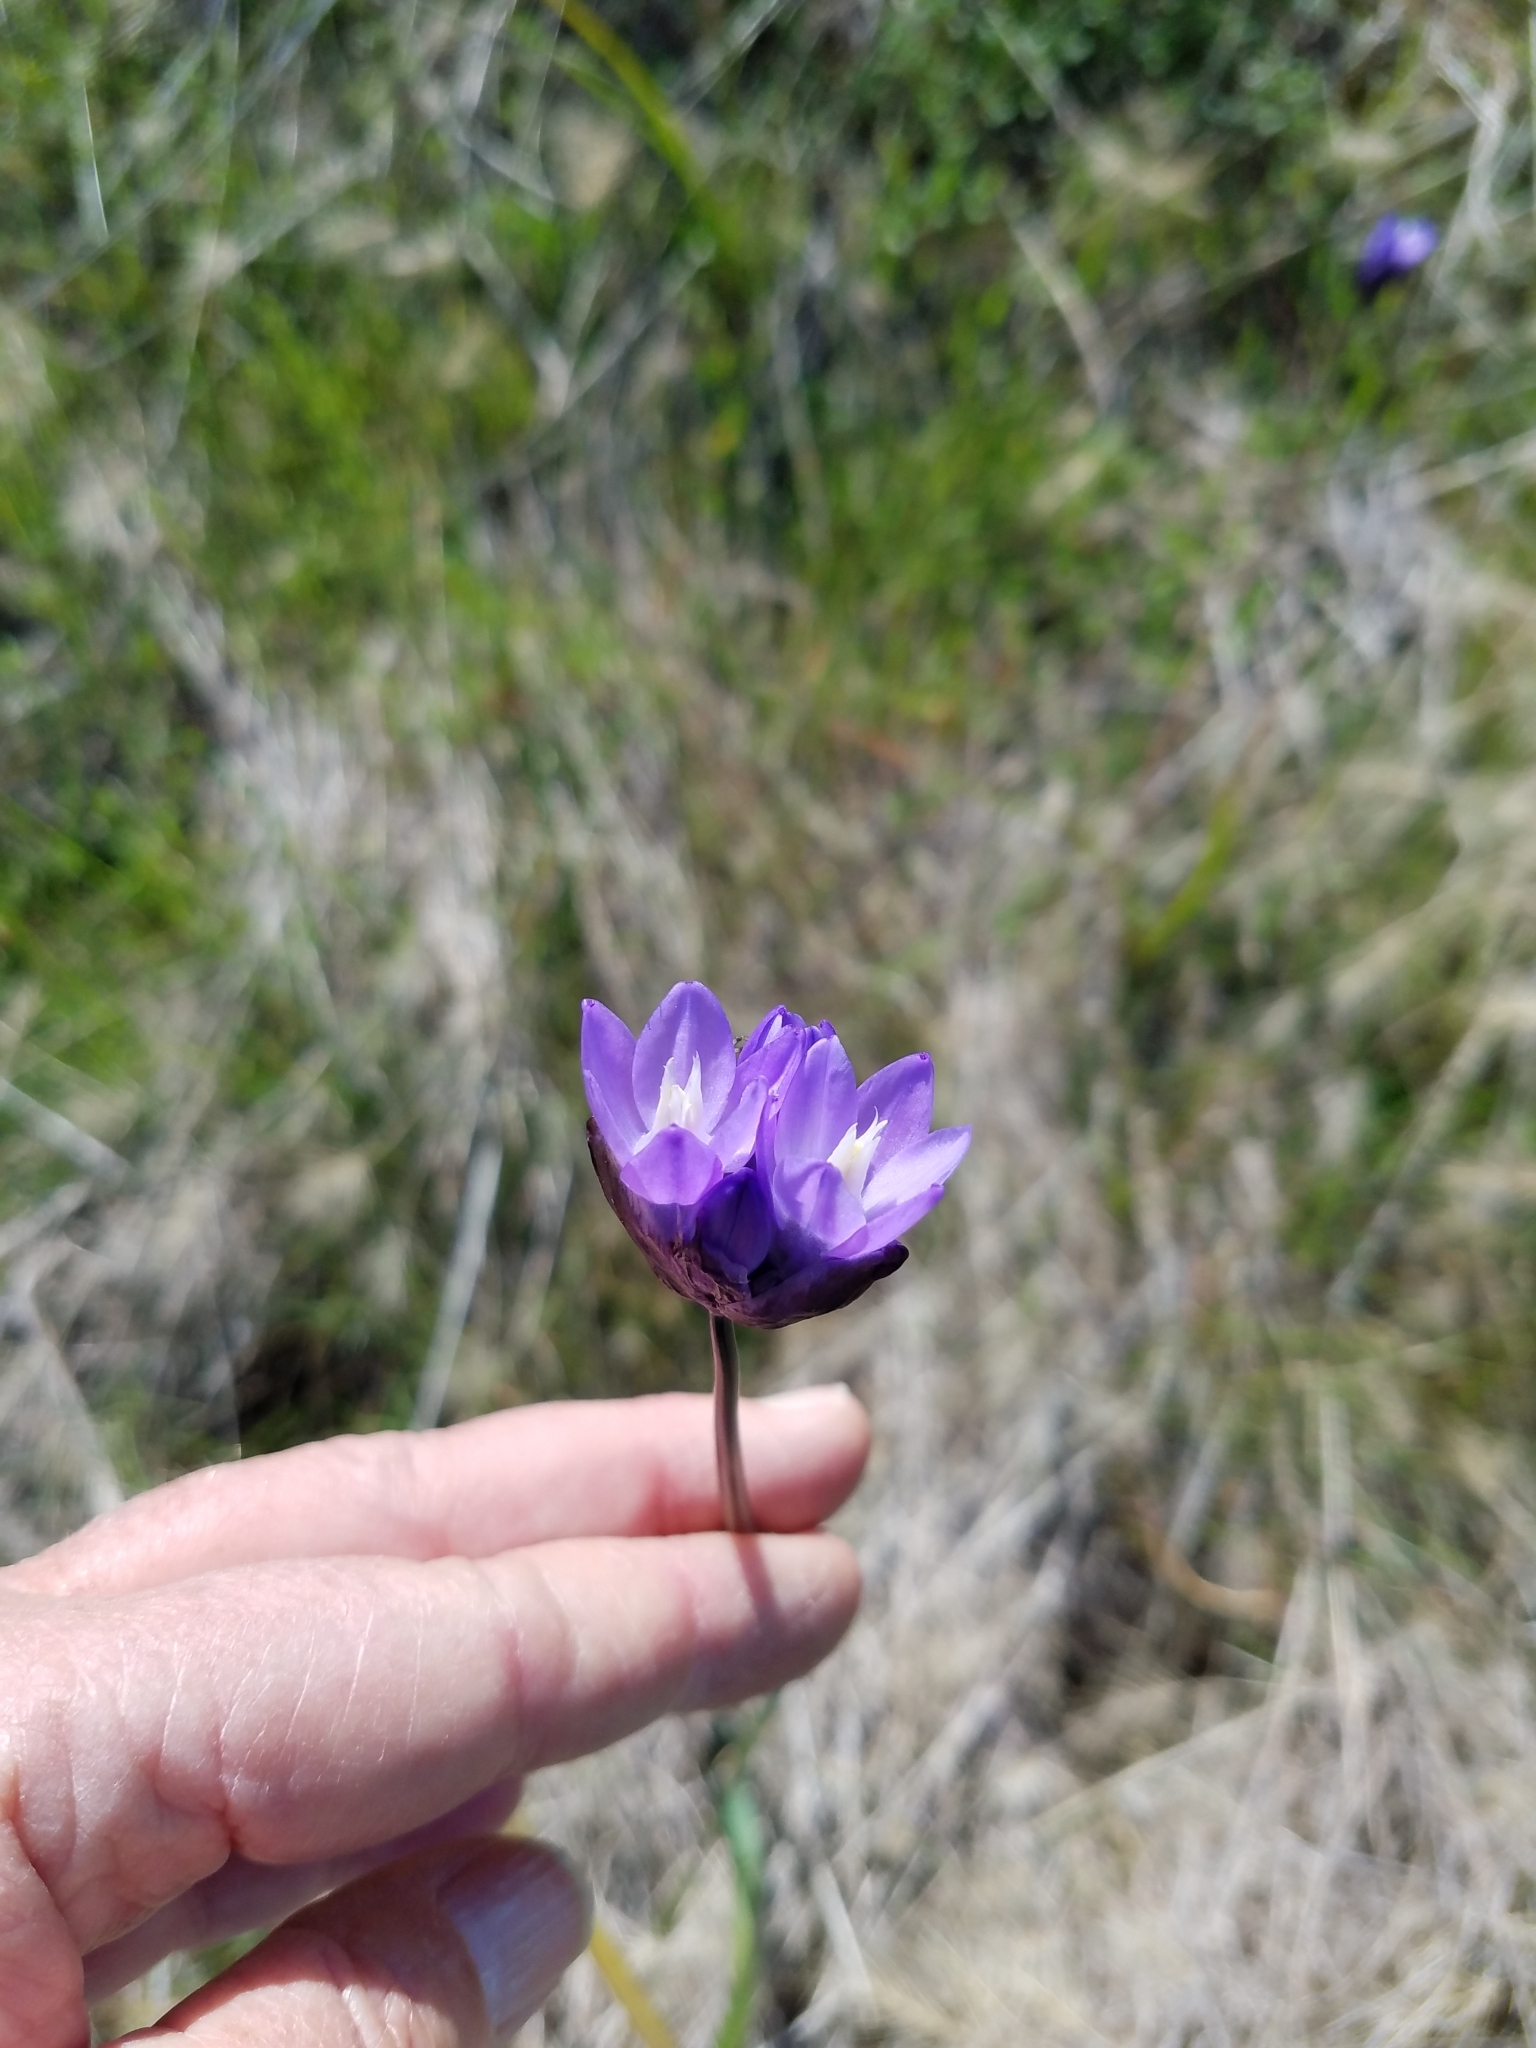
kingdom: Plantae
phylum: Tracheophyta
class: Liliopsida
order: Asparagales
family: Asparagaceae
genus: Dipterostemon
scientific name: Dipterostemon capitatus
